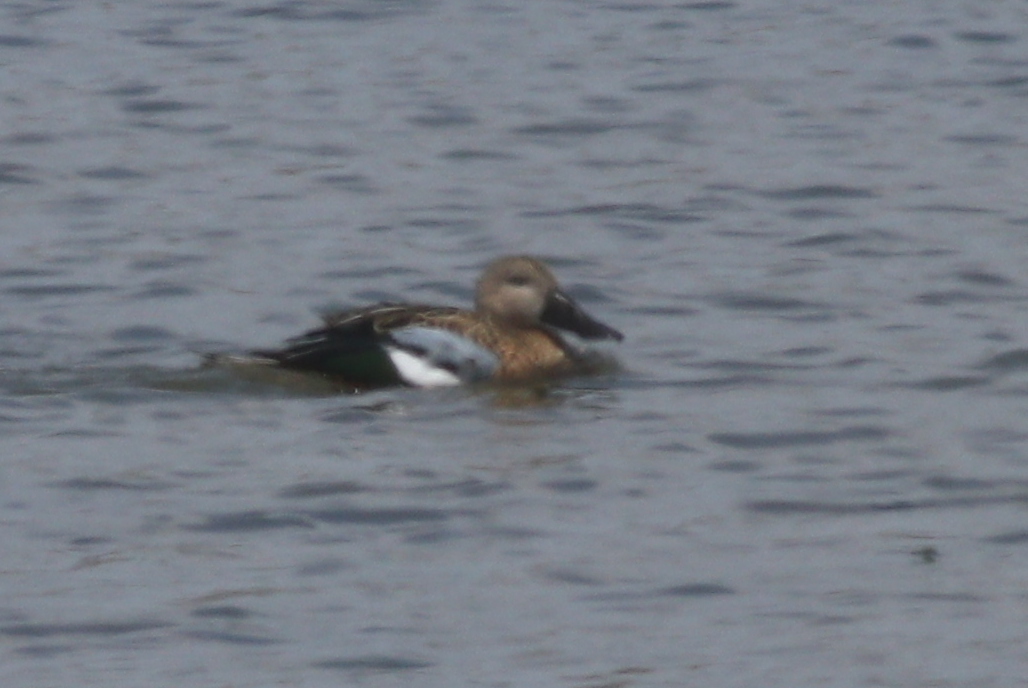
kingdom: Animalia
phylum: Chordata
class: Aves
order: Anseriformes
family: Anatidae
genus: Spatula
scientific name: Spatula platalea
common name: Red shoveler
